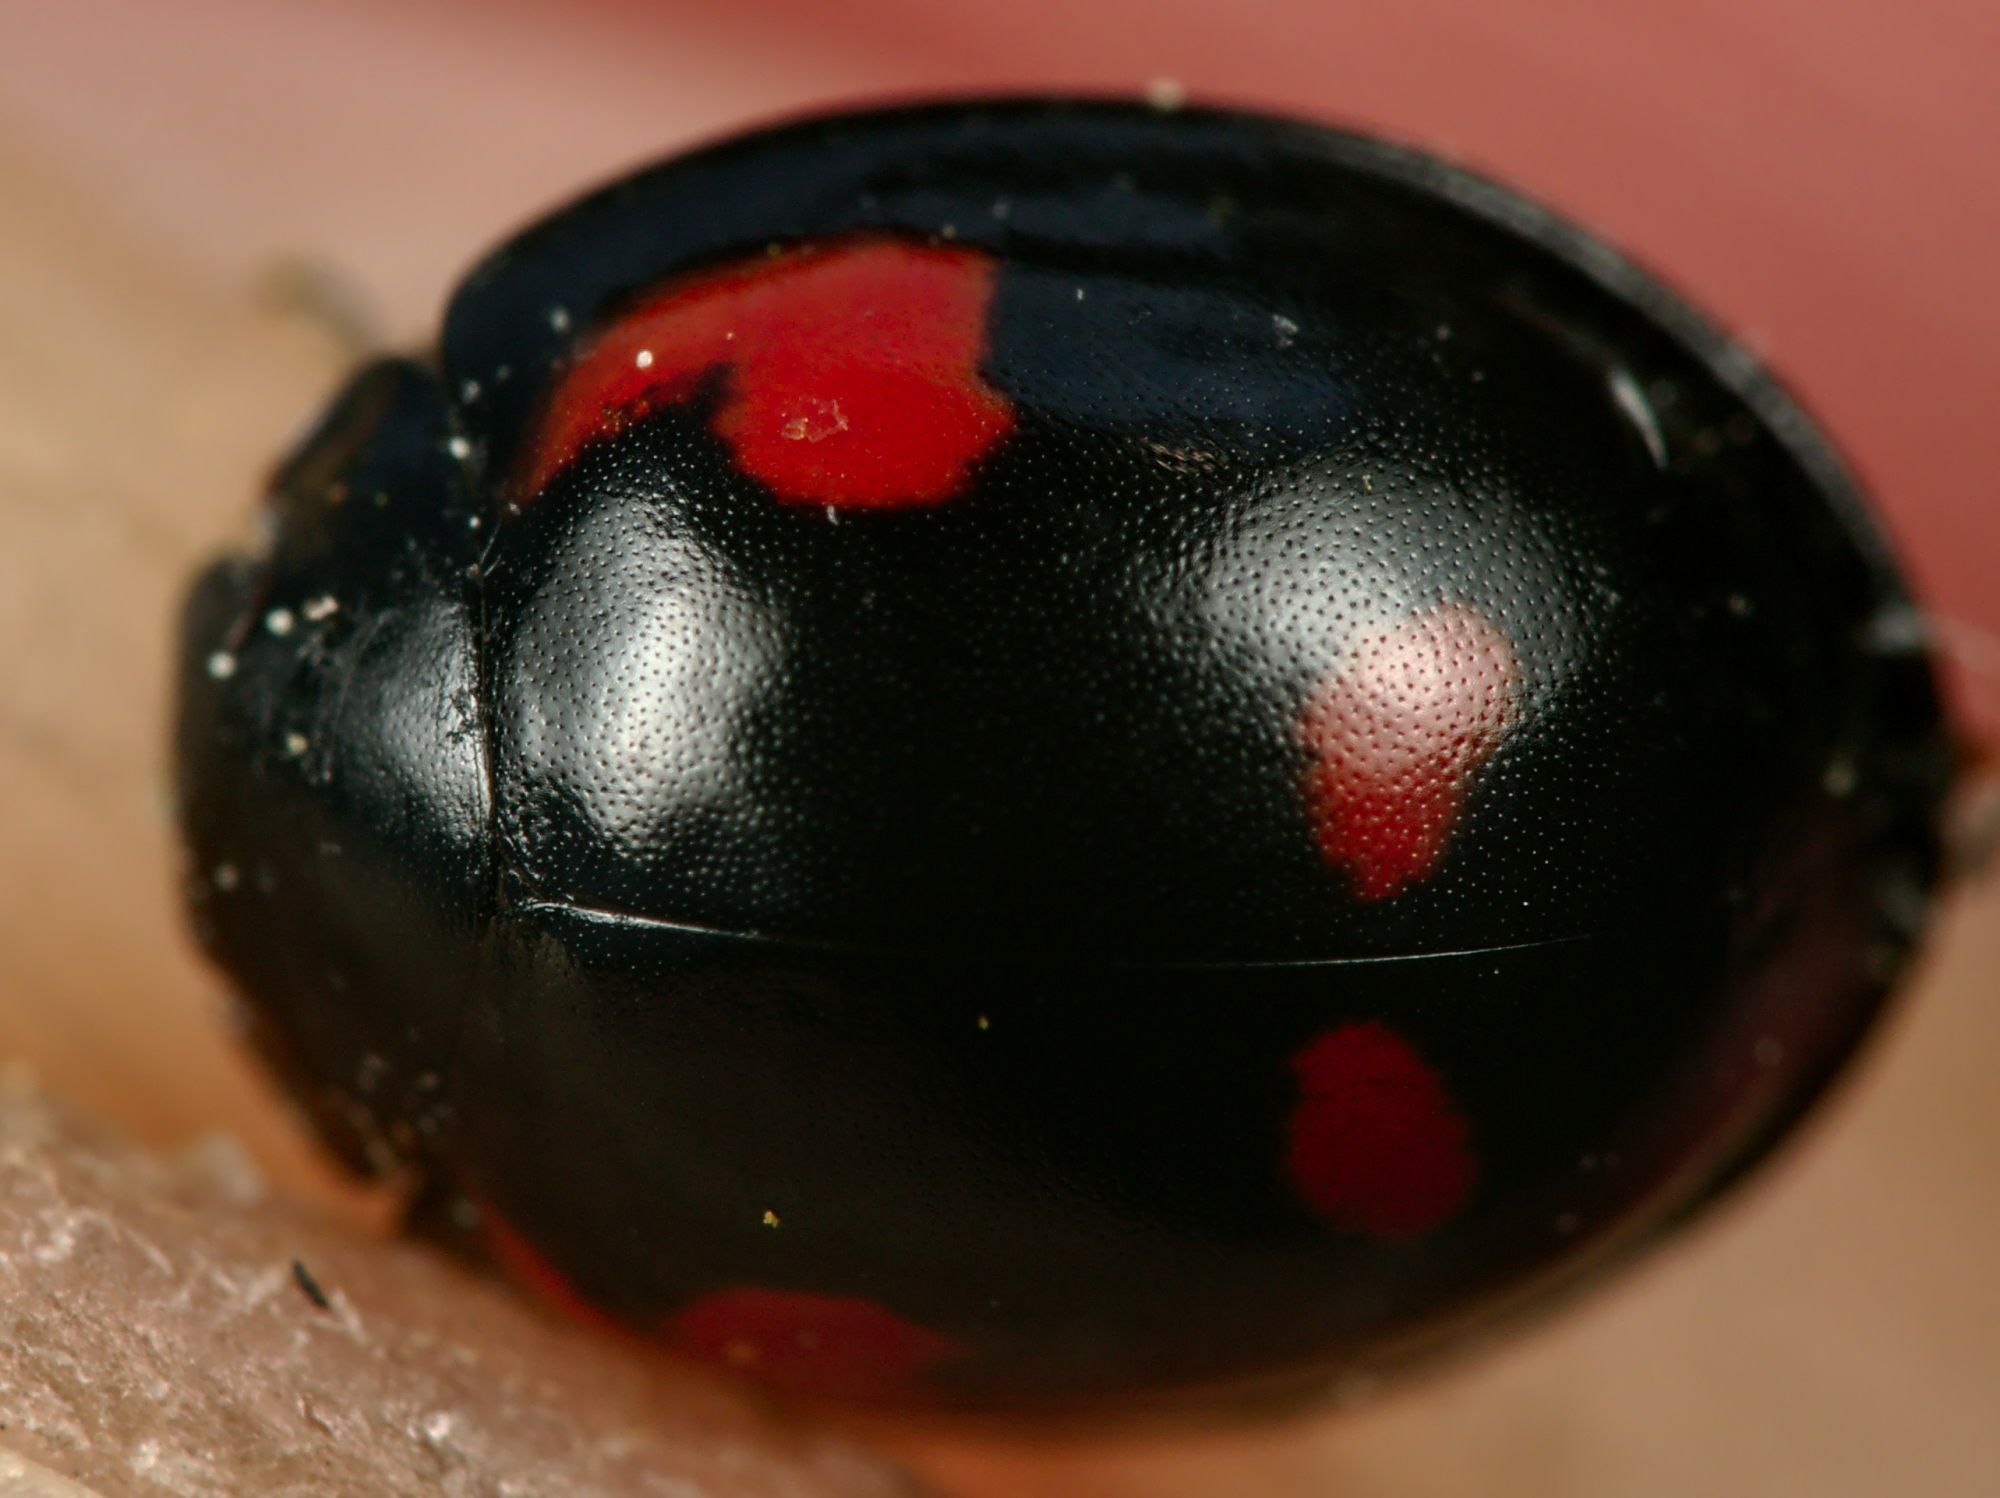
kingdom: Animalia
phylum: Arthropoda
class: Insecta
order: Coleoptera
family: Coccinellidae
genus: Brumus
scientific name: Brumus quadripustulatus
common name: Ladybird beetle
